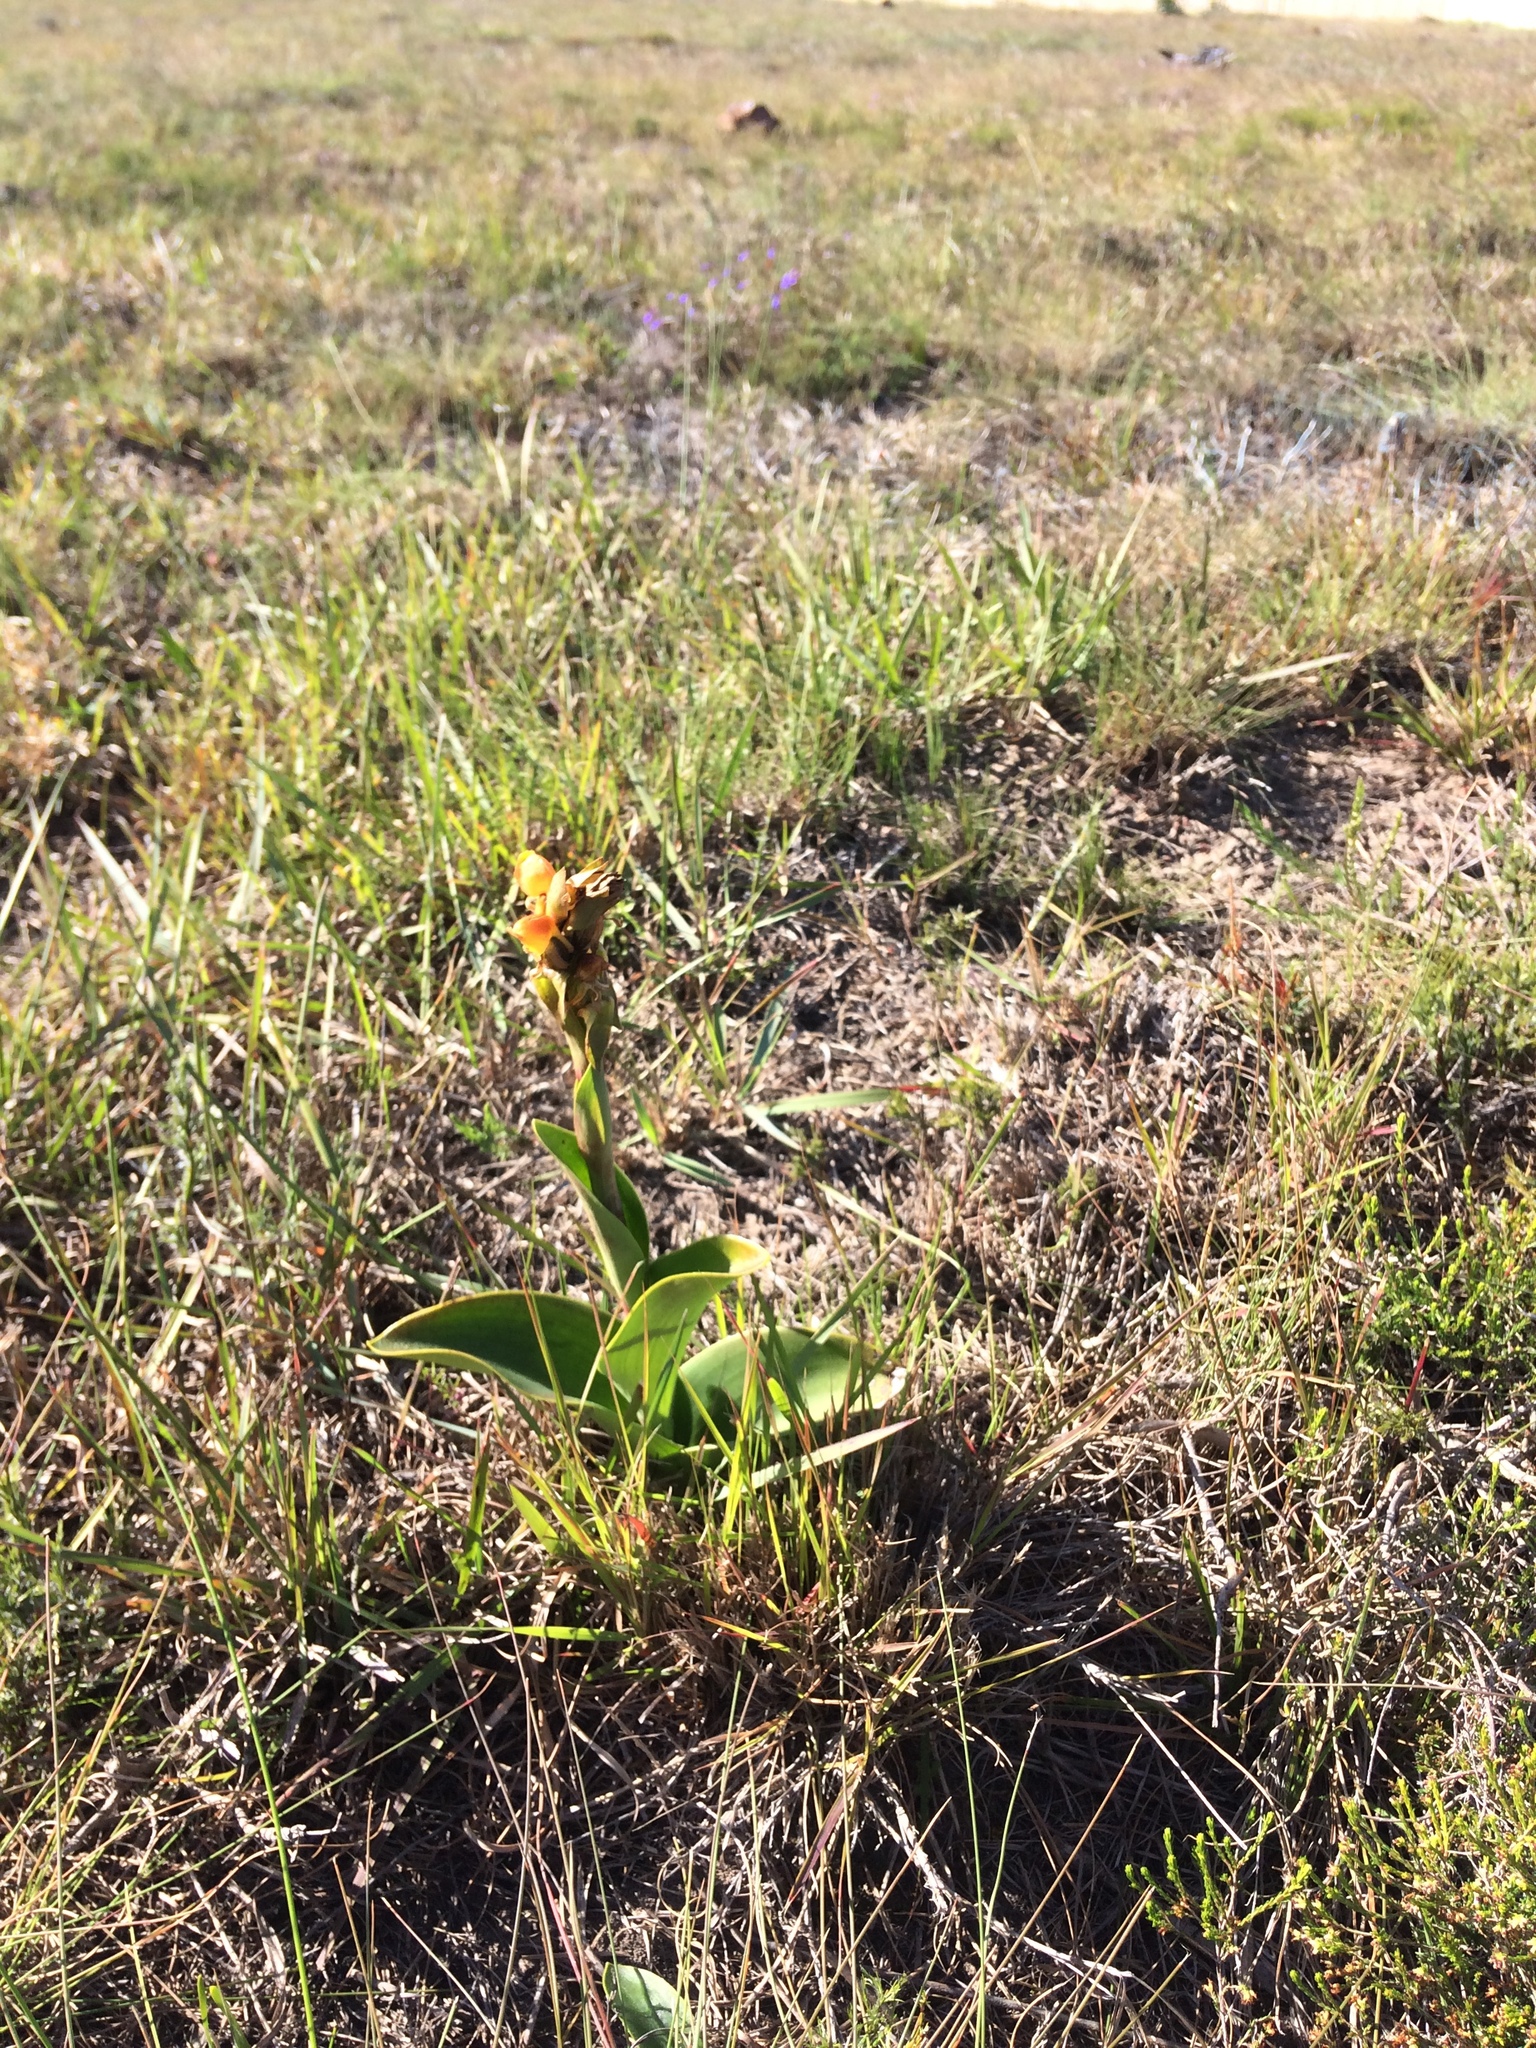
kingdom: Plantae
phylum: Tracheophyta
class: Liliopsida
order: Asparagales
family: Orchidaceae
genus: Satyrium
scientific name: Satyrium coriifolium
